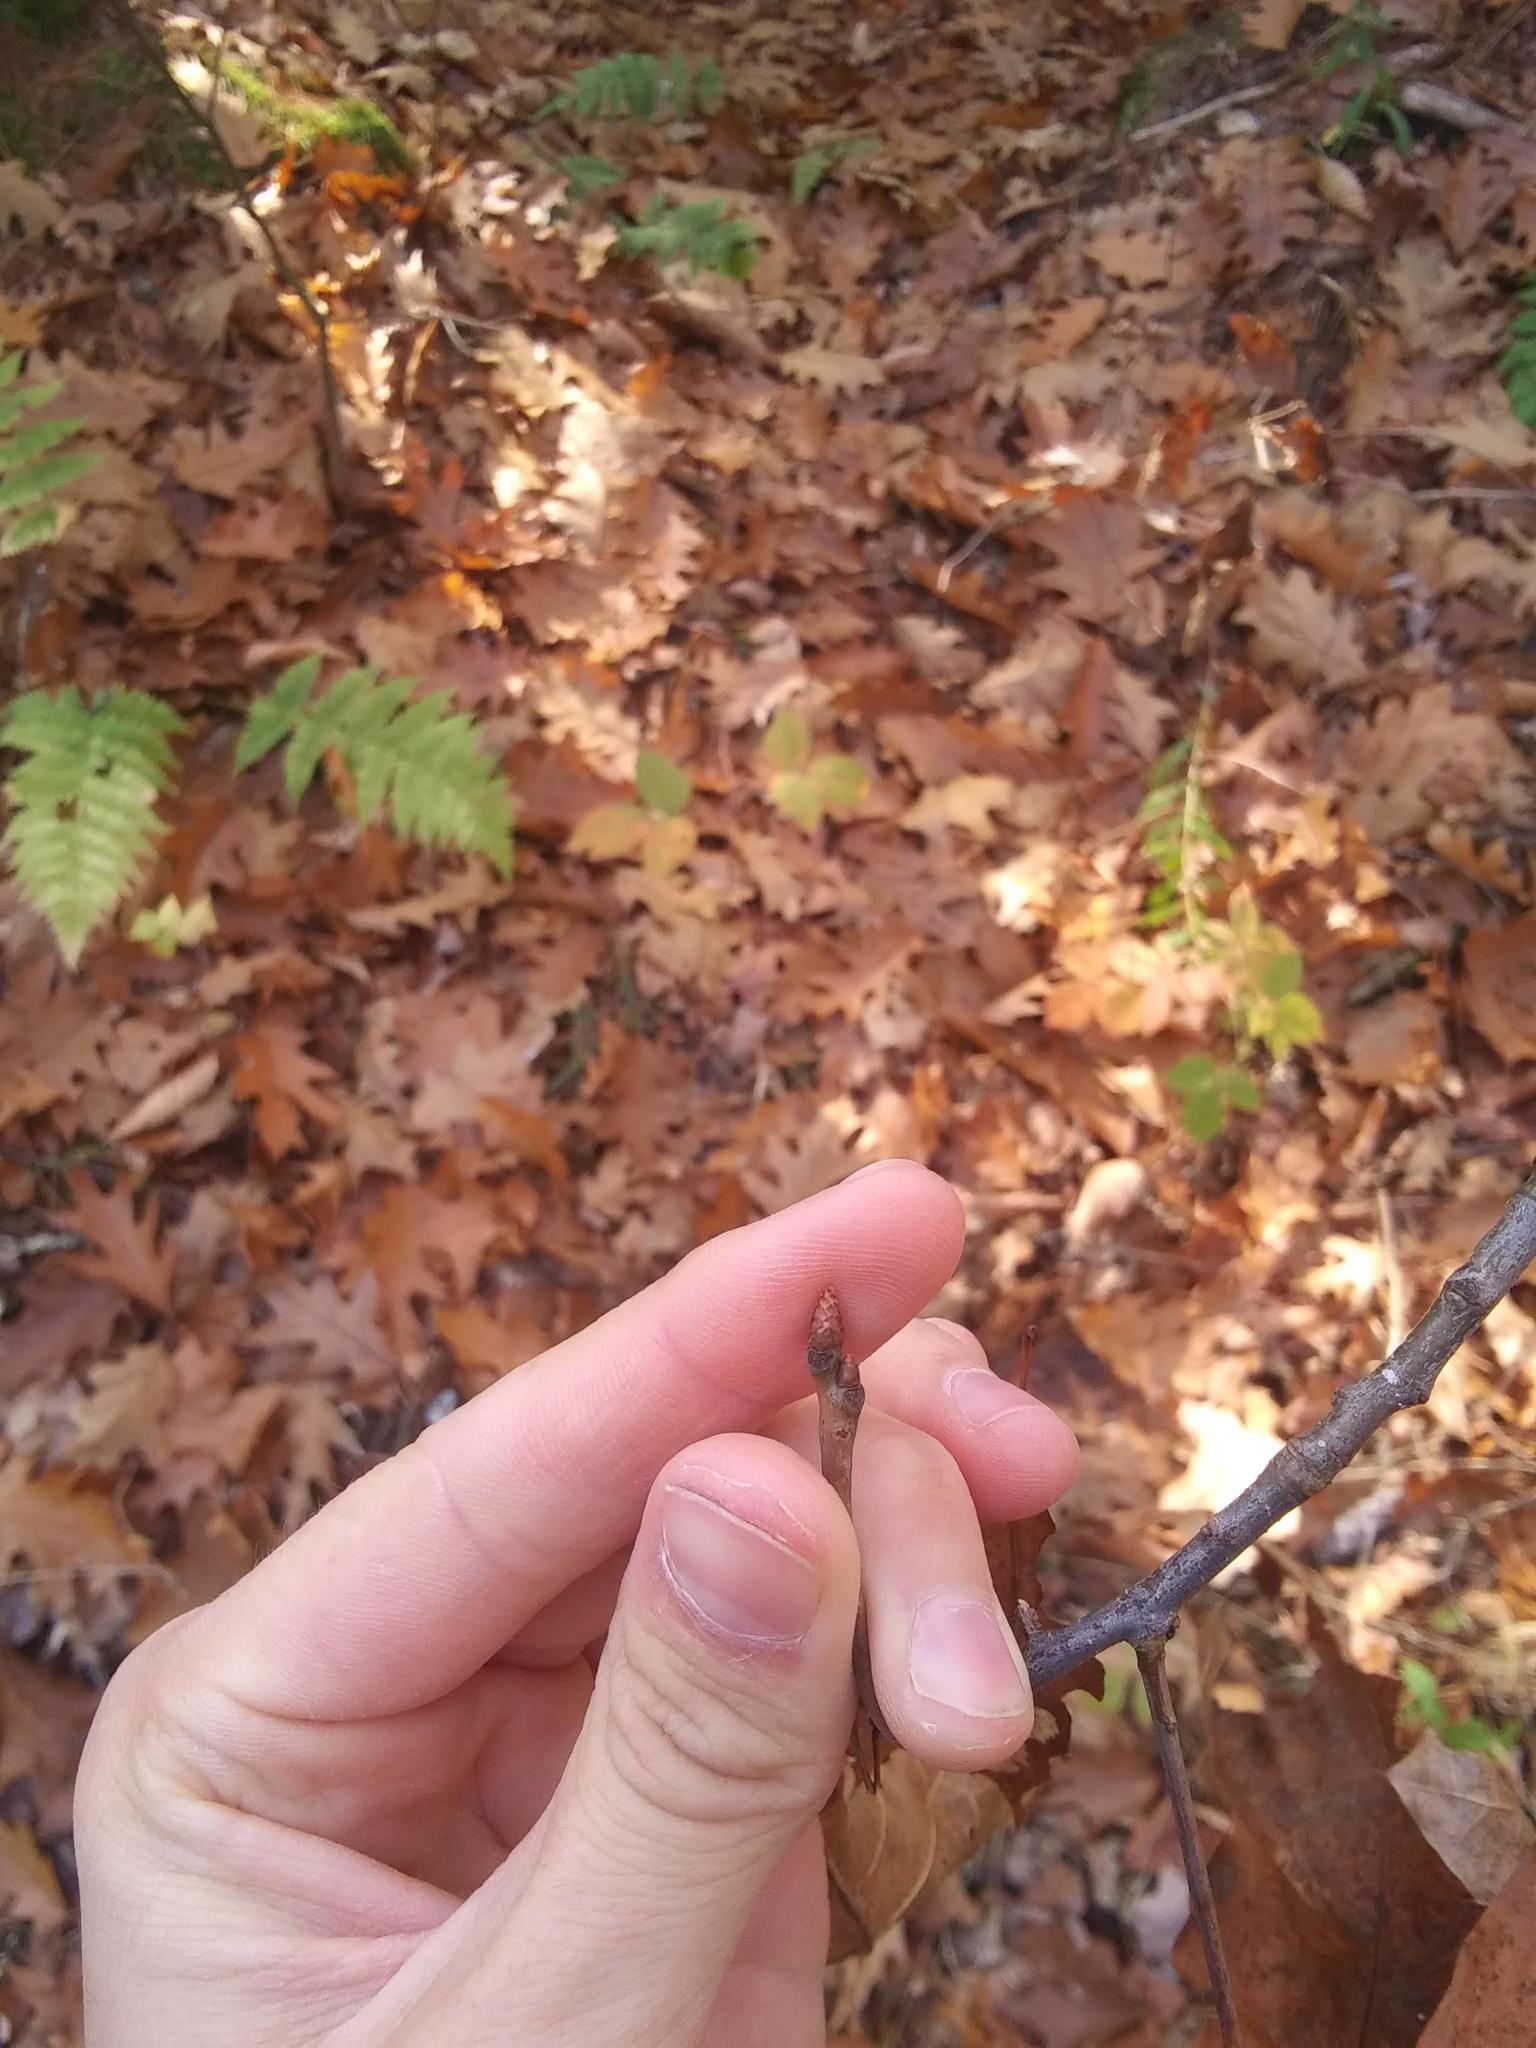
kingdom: Plantae
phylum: Tracheophyta
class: Magnoliopsida
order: Fagales
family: Fagaceae
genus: Quercus
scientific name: Quercus rubra
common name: Red oak
